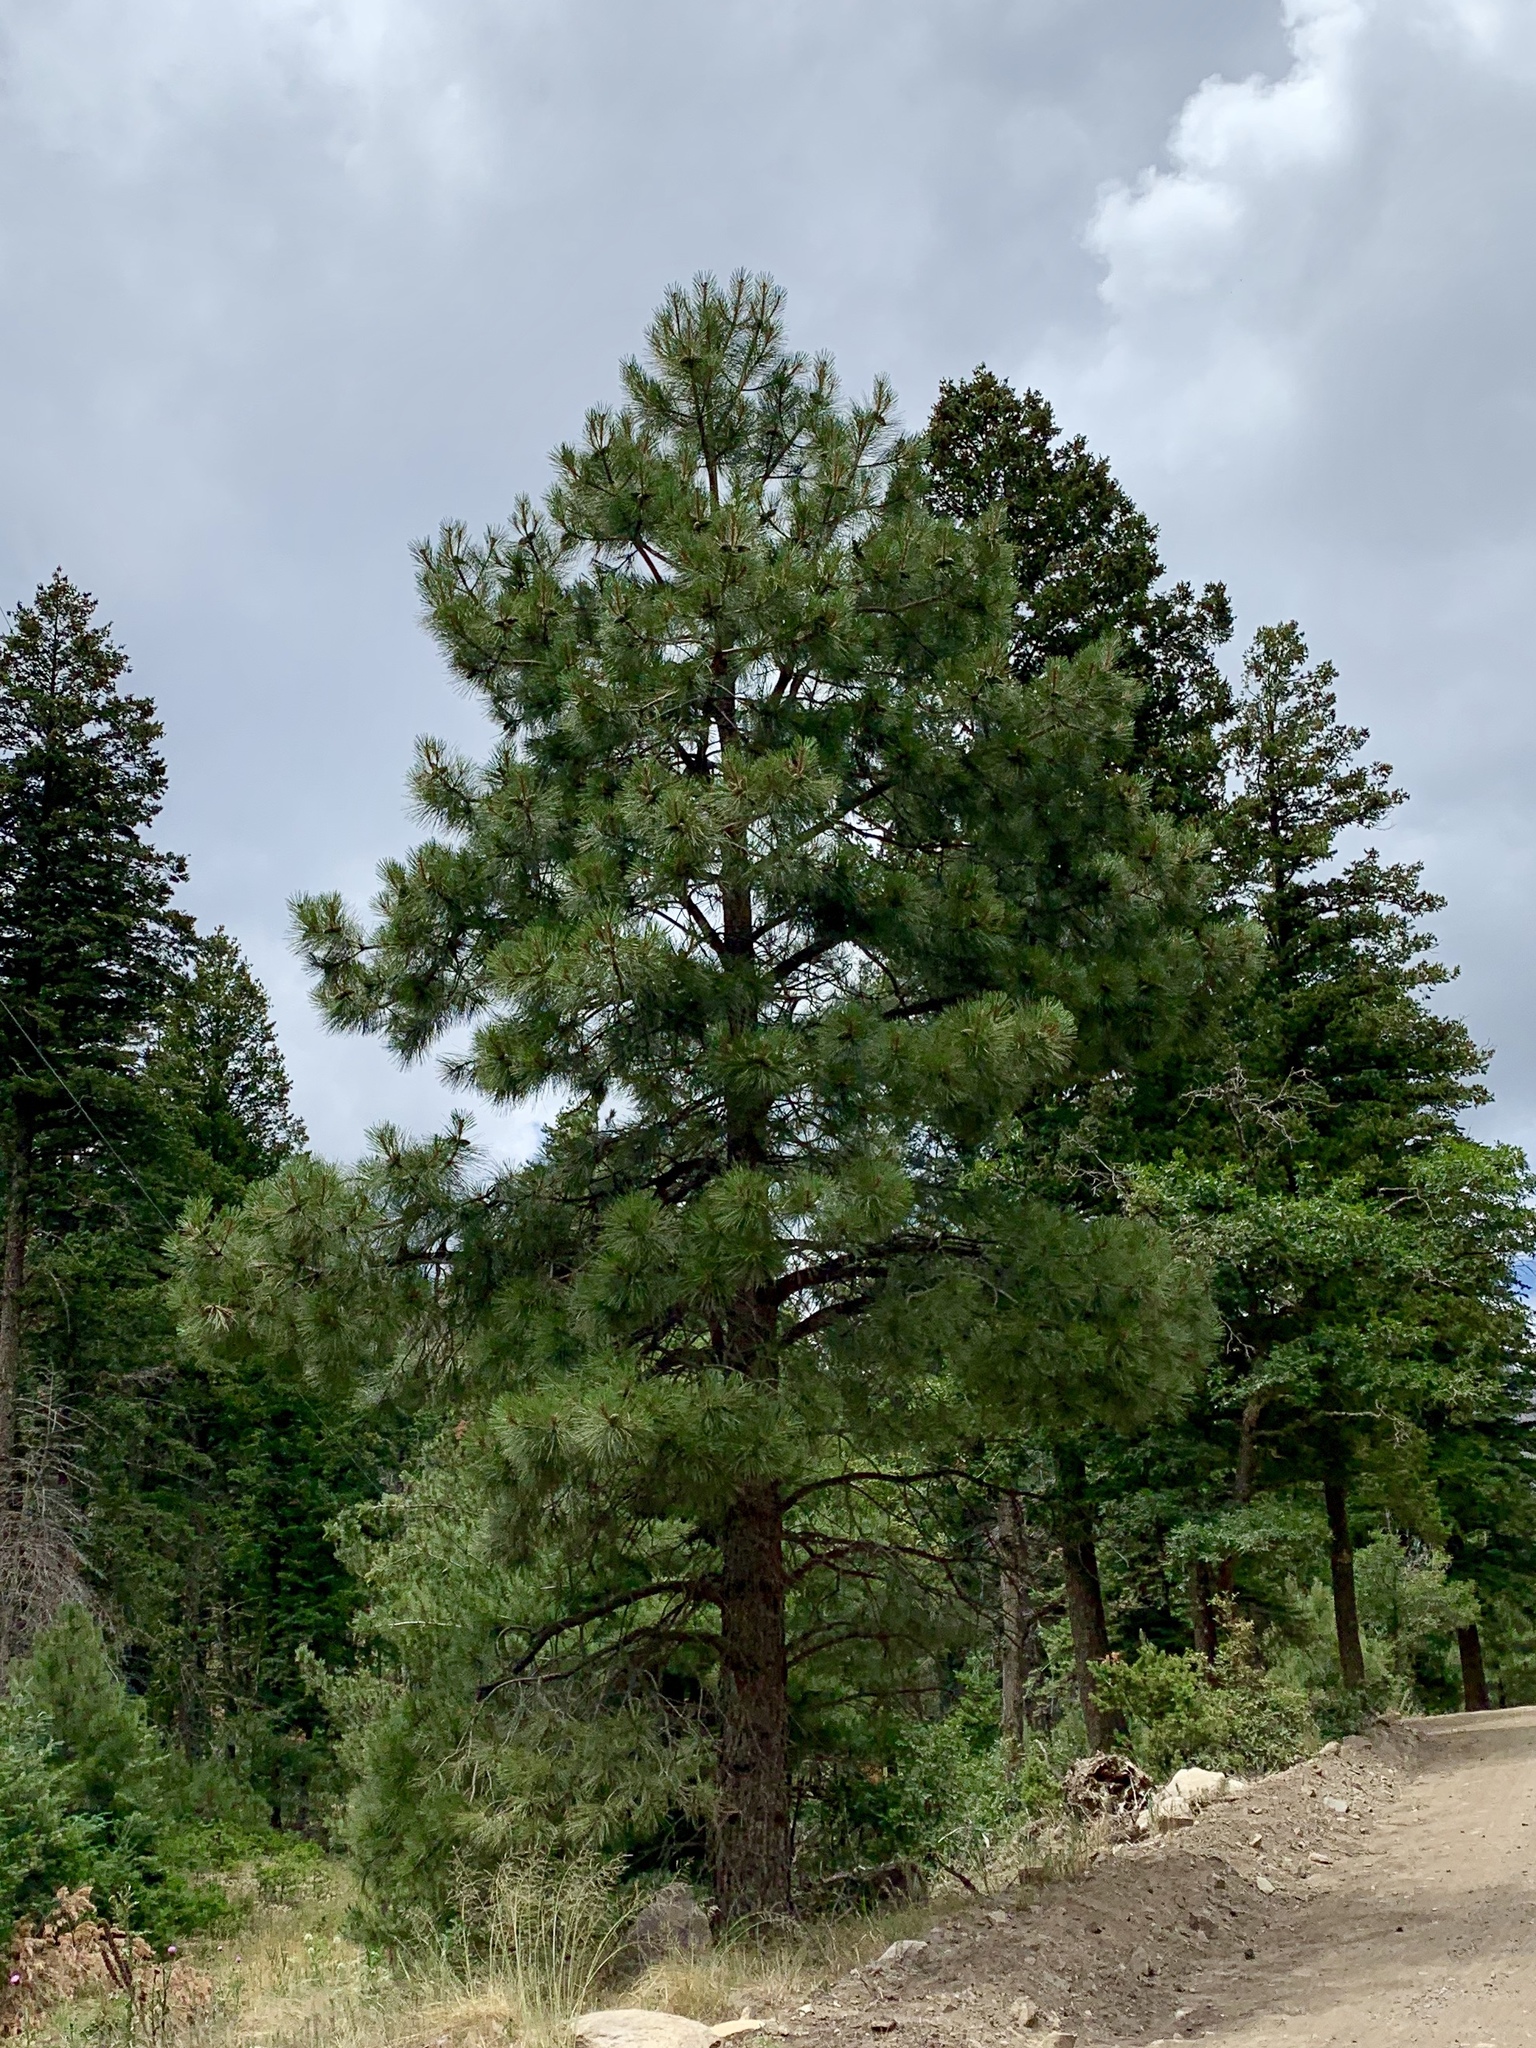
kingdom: Plantae
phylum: Tracheophyta
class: Pinopsida
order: Pinales
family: Pinaceae
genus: Pinus
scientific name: Pinus strobiformis
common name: Southwestern white pine
